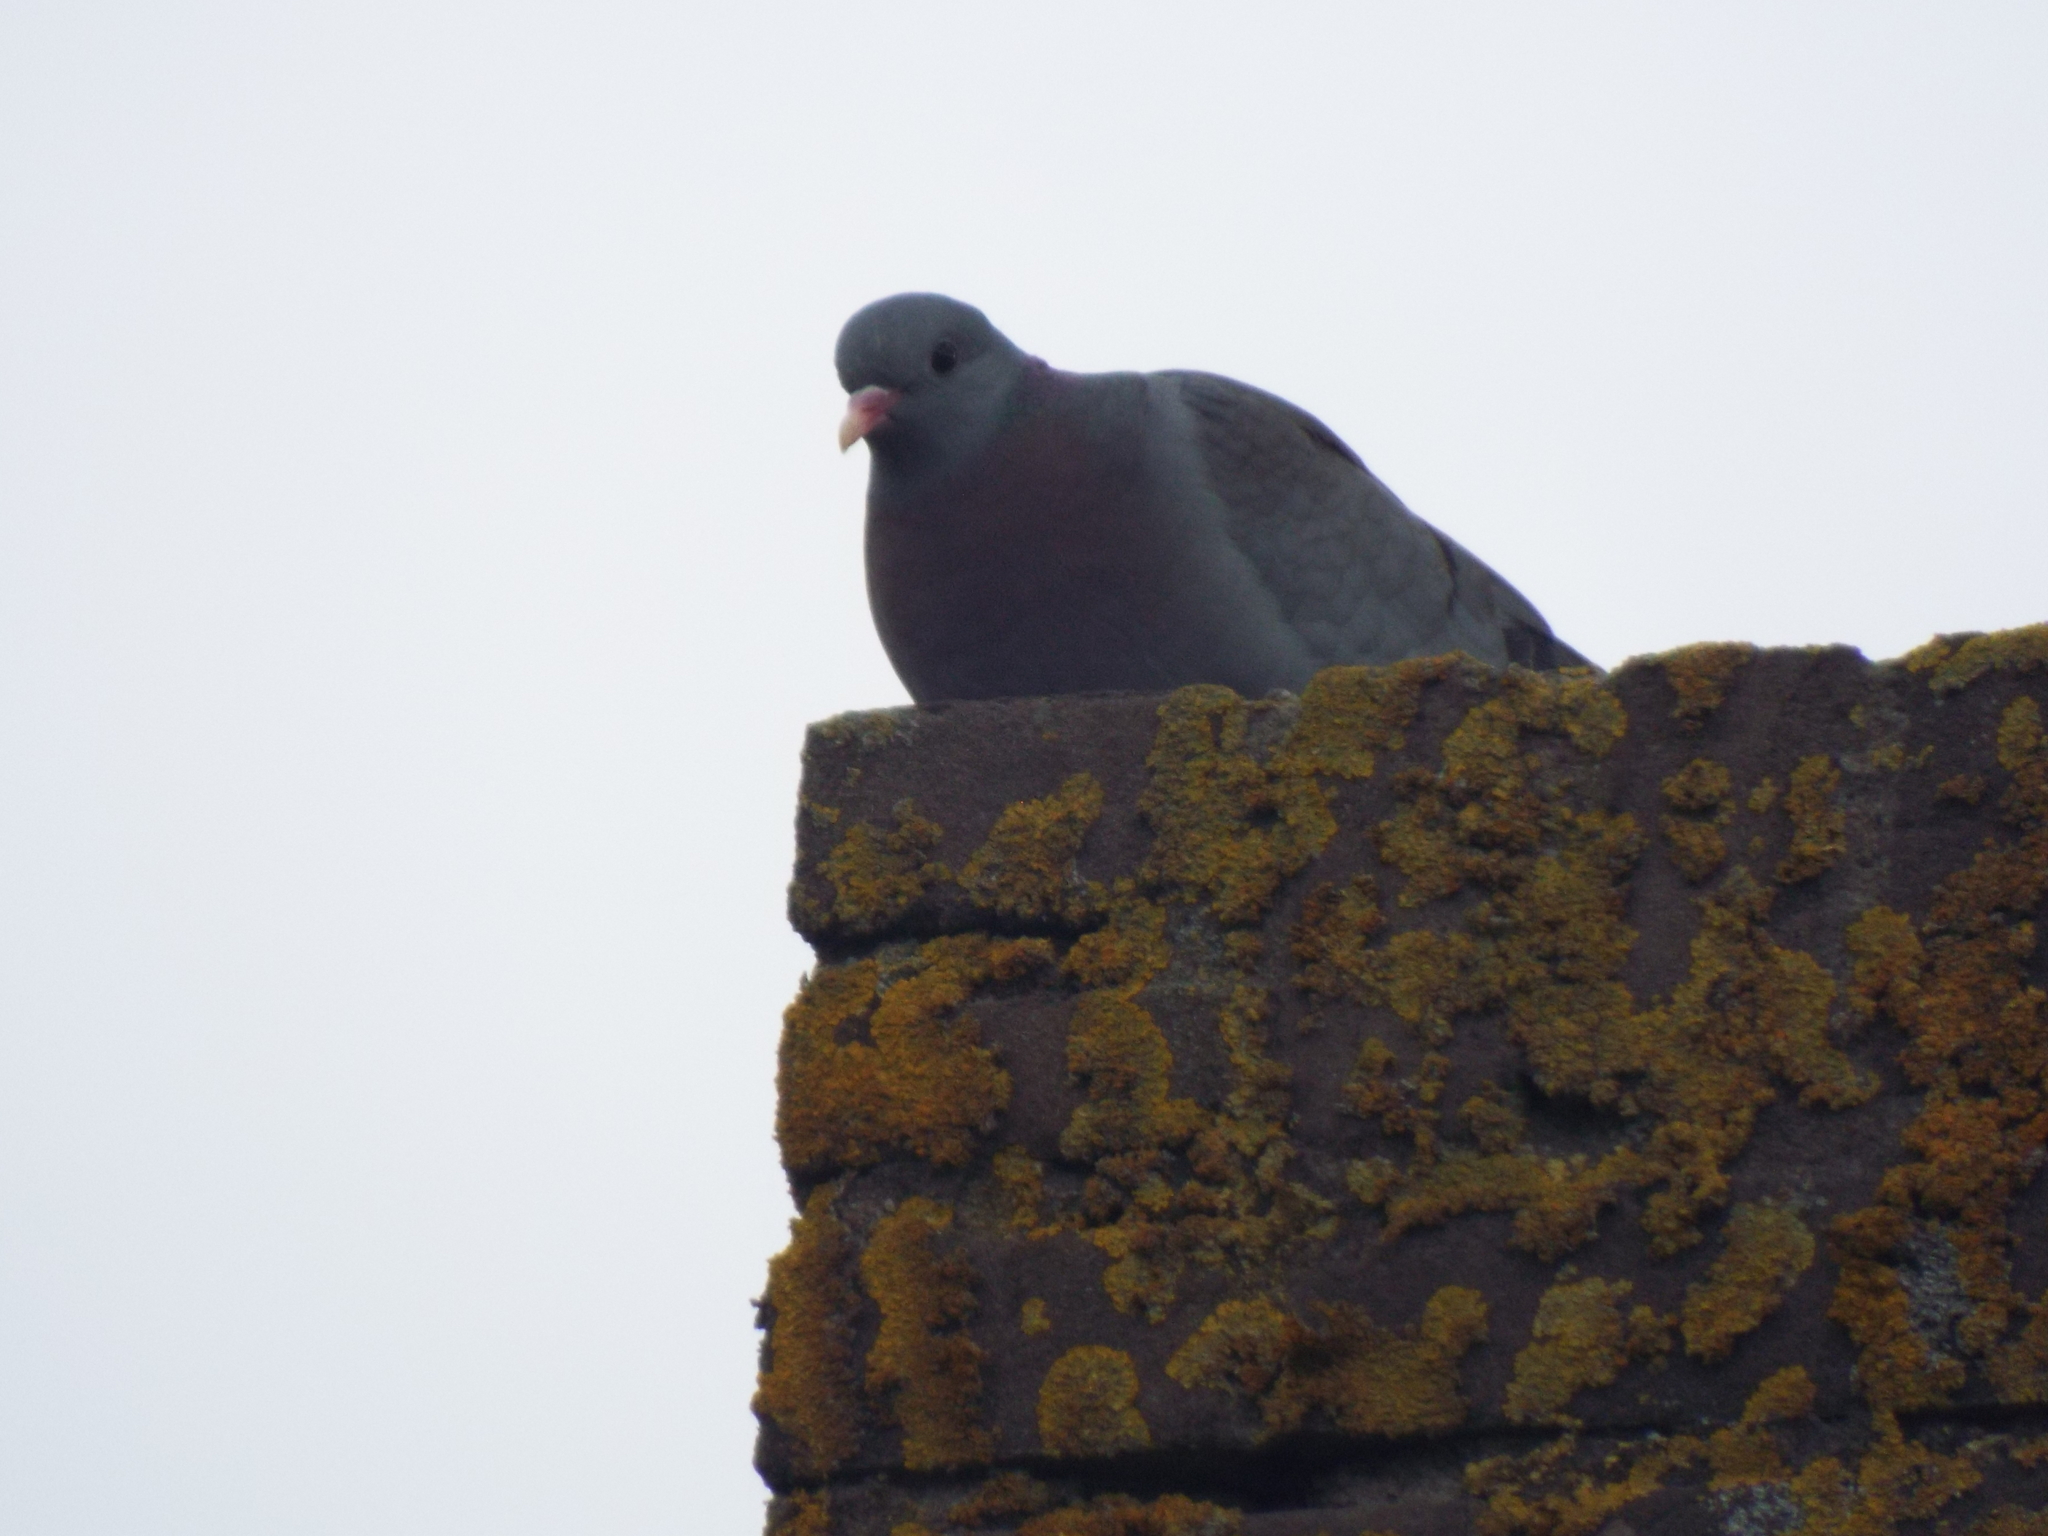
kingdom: Animalia
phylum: Chordata
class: Aves
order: Columbiformes
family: Columbidae
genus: Columba
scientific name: Columba oenas
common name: Stock dove
